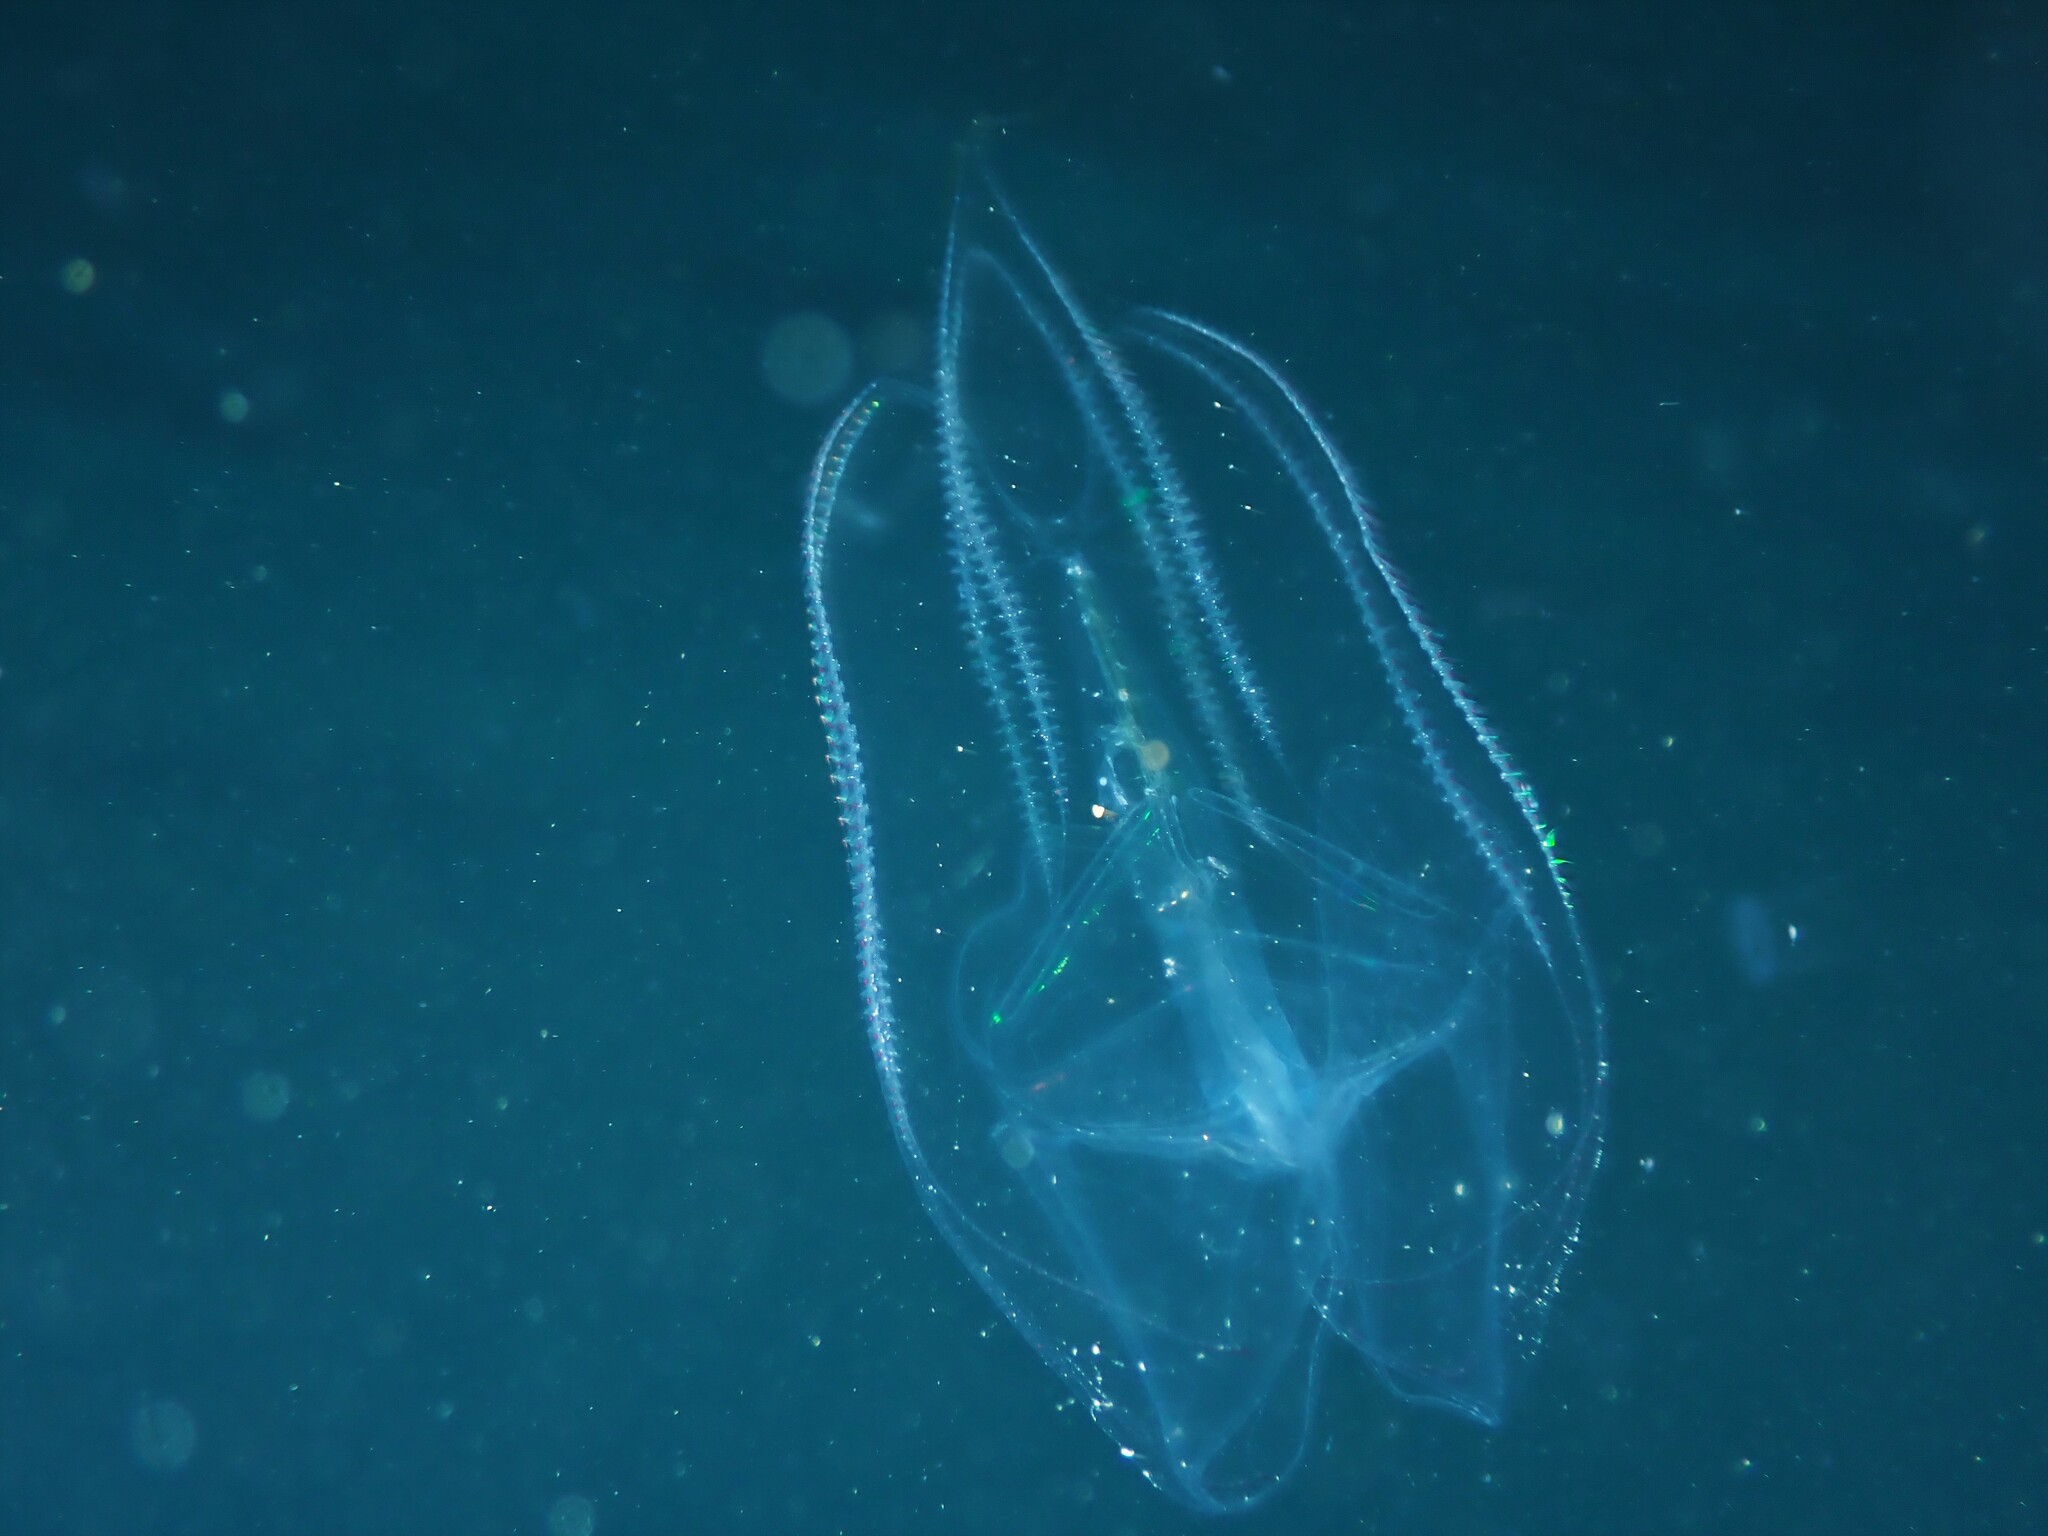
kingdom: Animalia
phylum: Ctenophora
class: Tentaculata
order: Lobata
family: Eurhamphaeidae
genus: Eurhamphaea
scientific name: Eurhamphaea vexilligera
